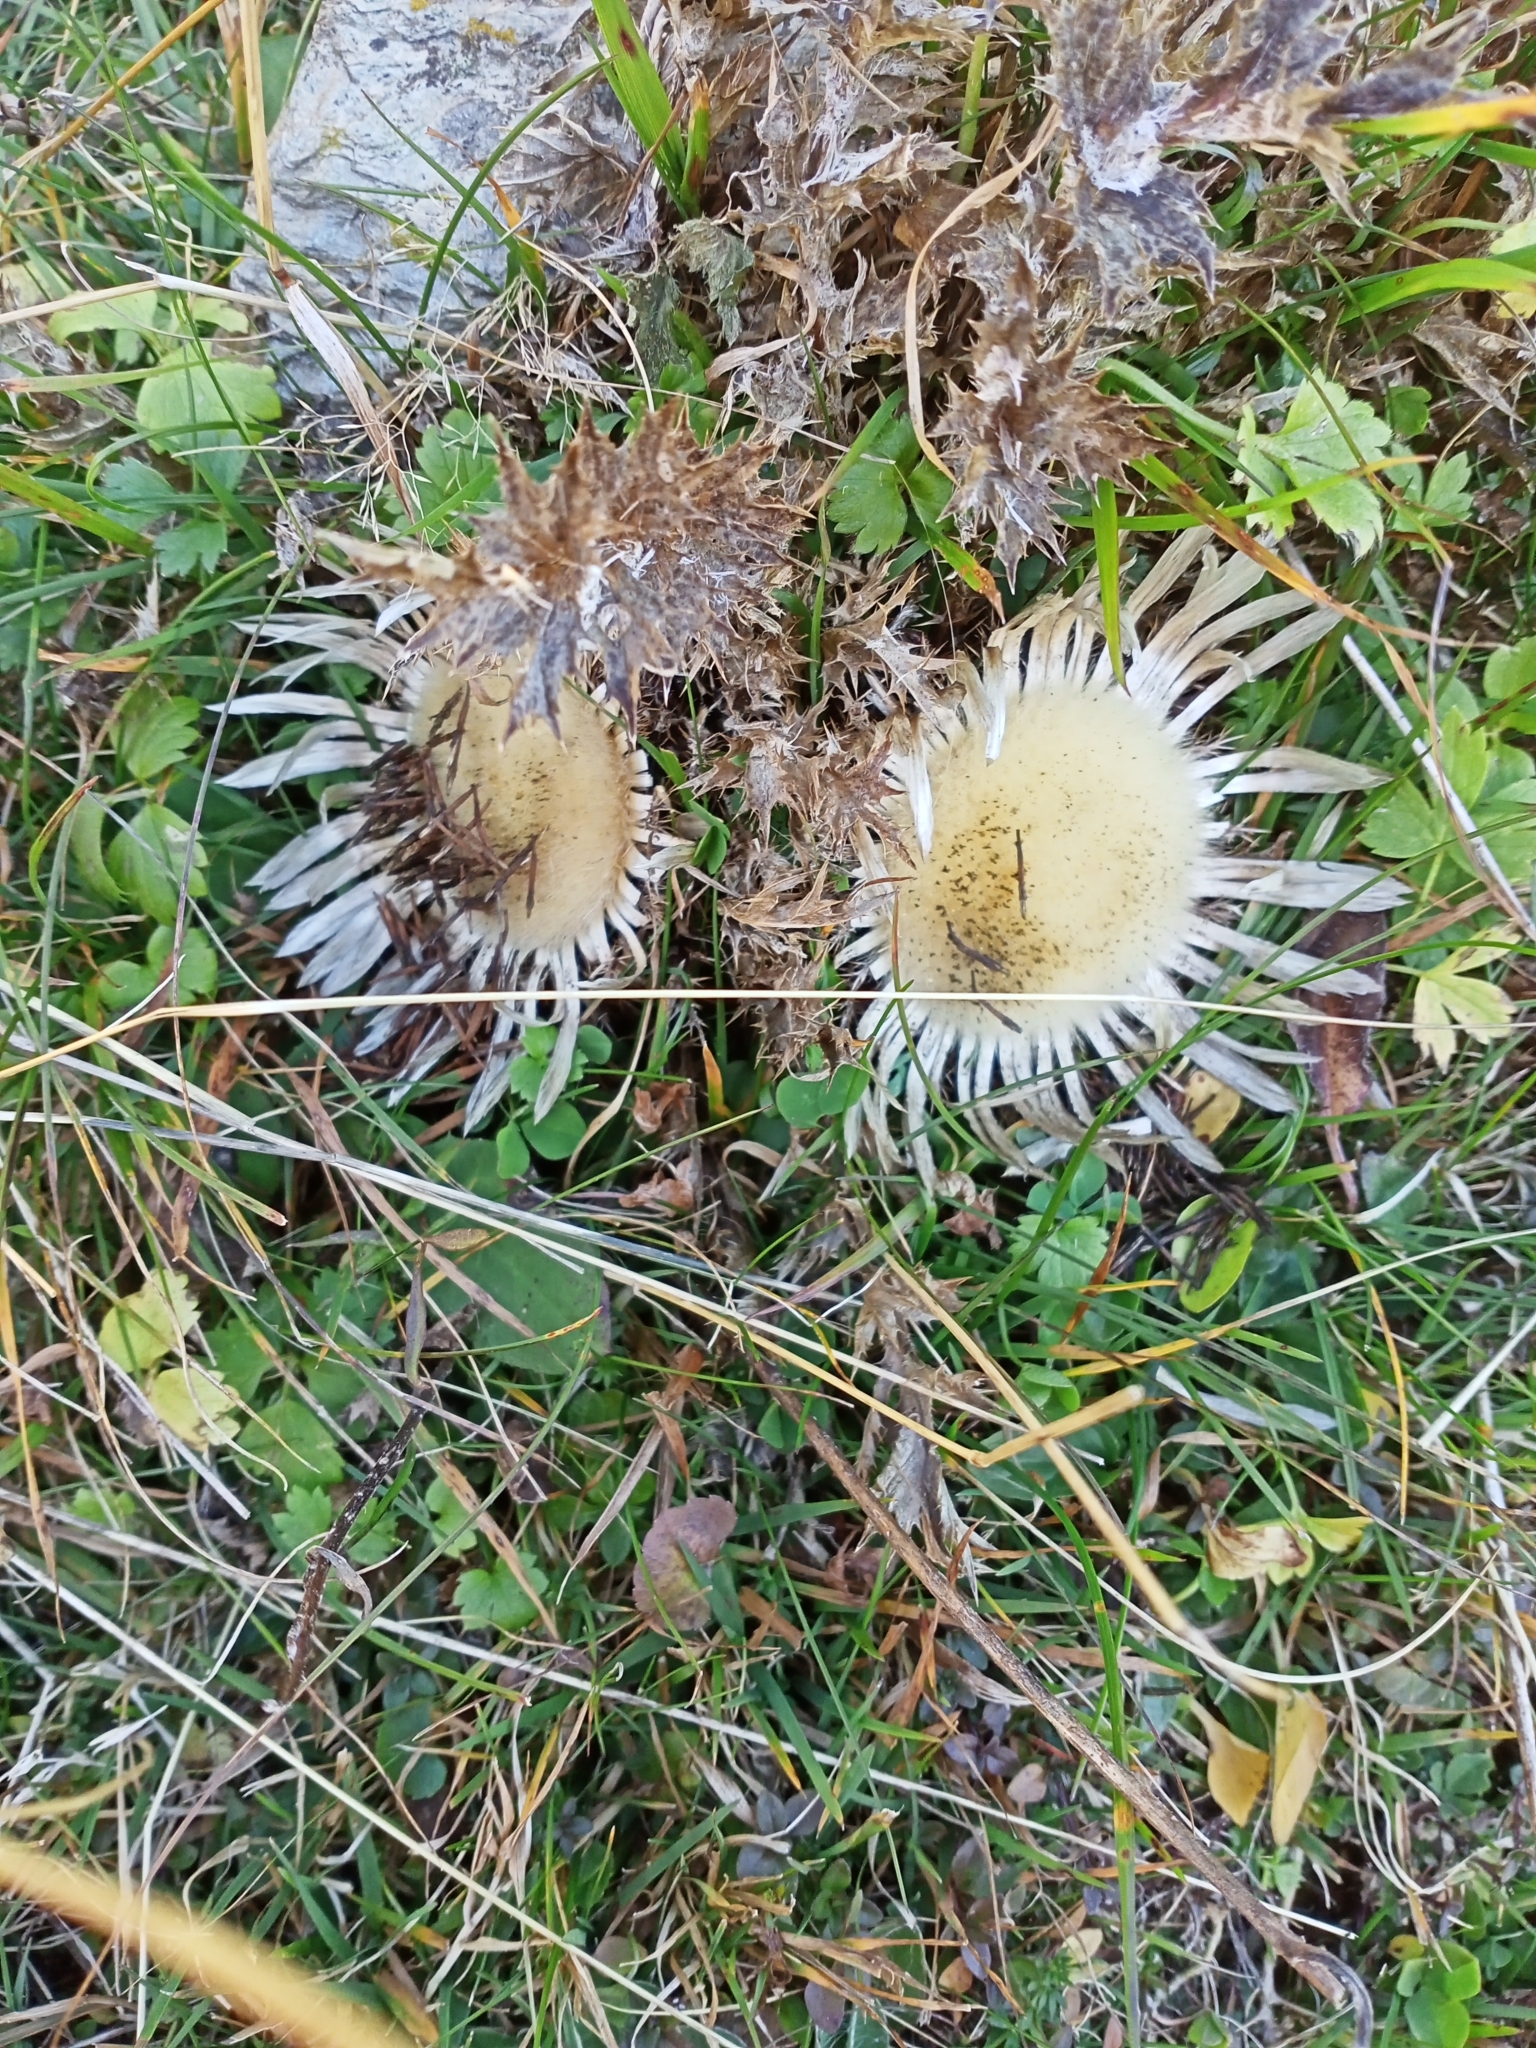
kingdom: Plantae
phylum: Tracheophyta
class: Magnoliopsida
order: Asterales
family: Asteraceae
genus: Carlina
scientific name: Carlina acaulis
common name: Stemless carline thistle
